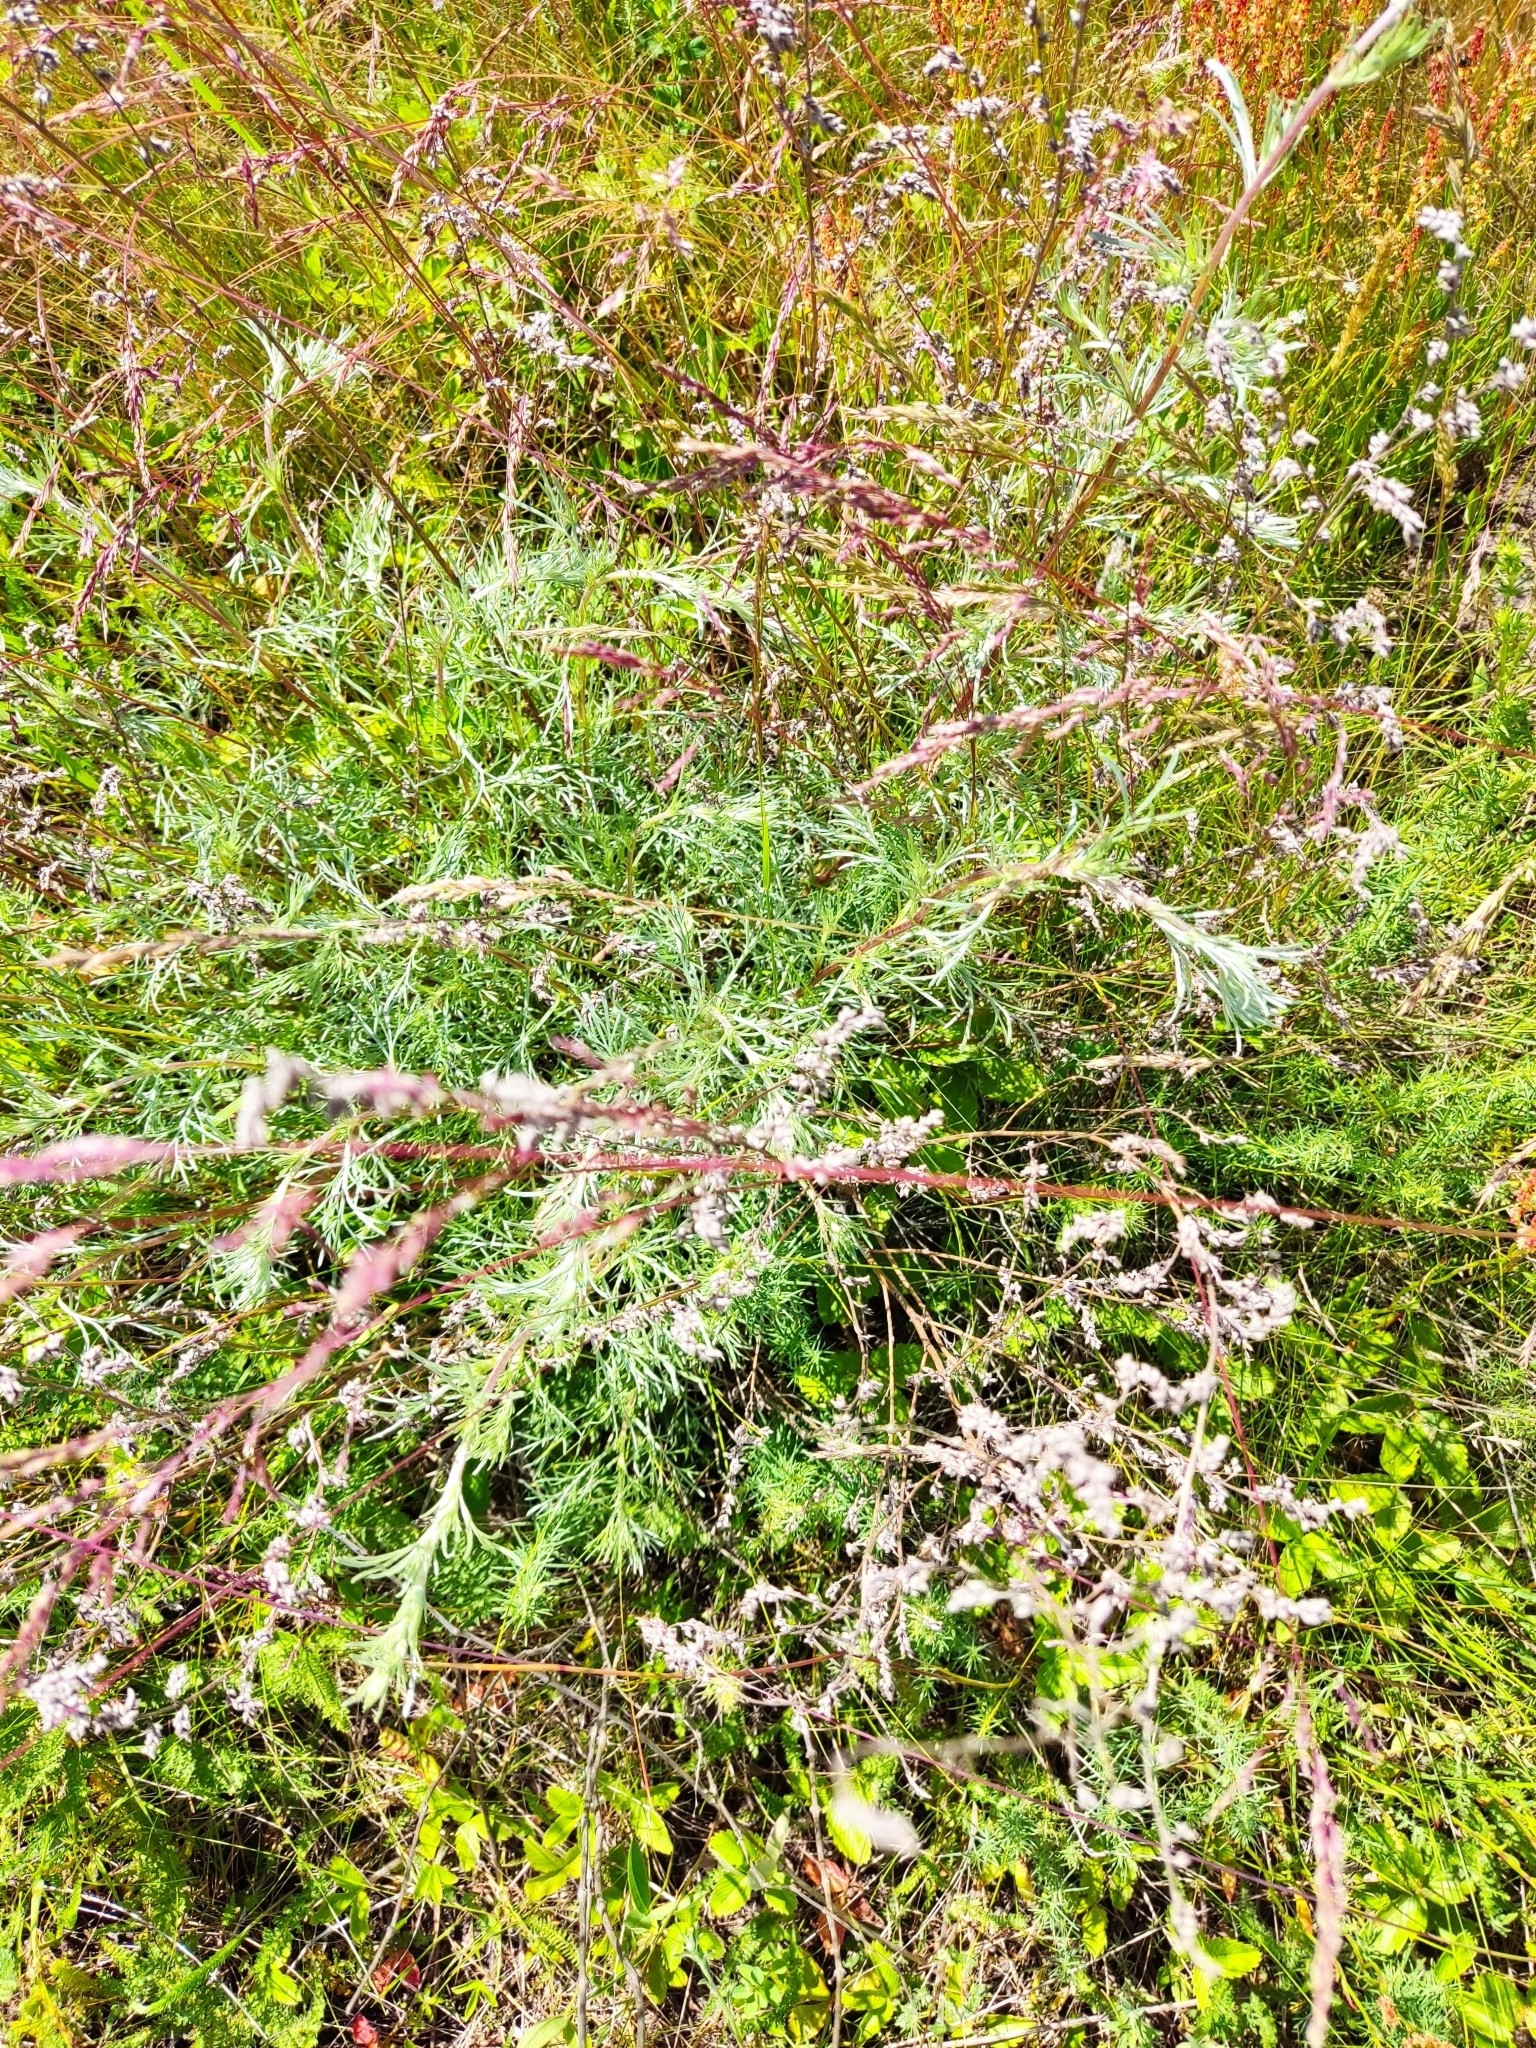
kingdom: Plantae
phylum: Tracheophyta
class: Magnoliopsida
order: Asterales
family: Asteraceae
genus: Artemisia
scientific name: Artemisia campestris
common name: Field wormwood
